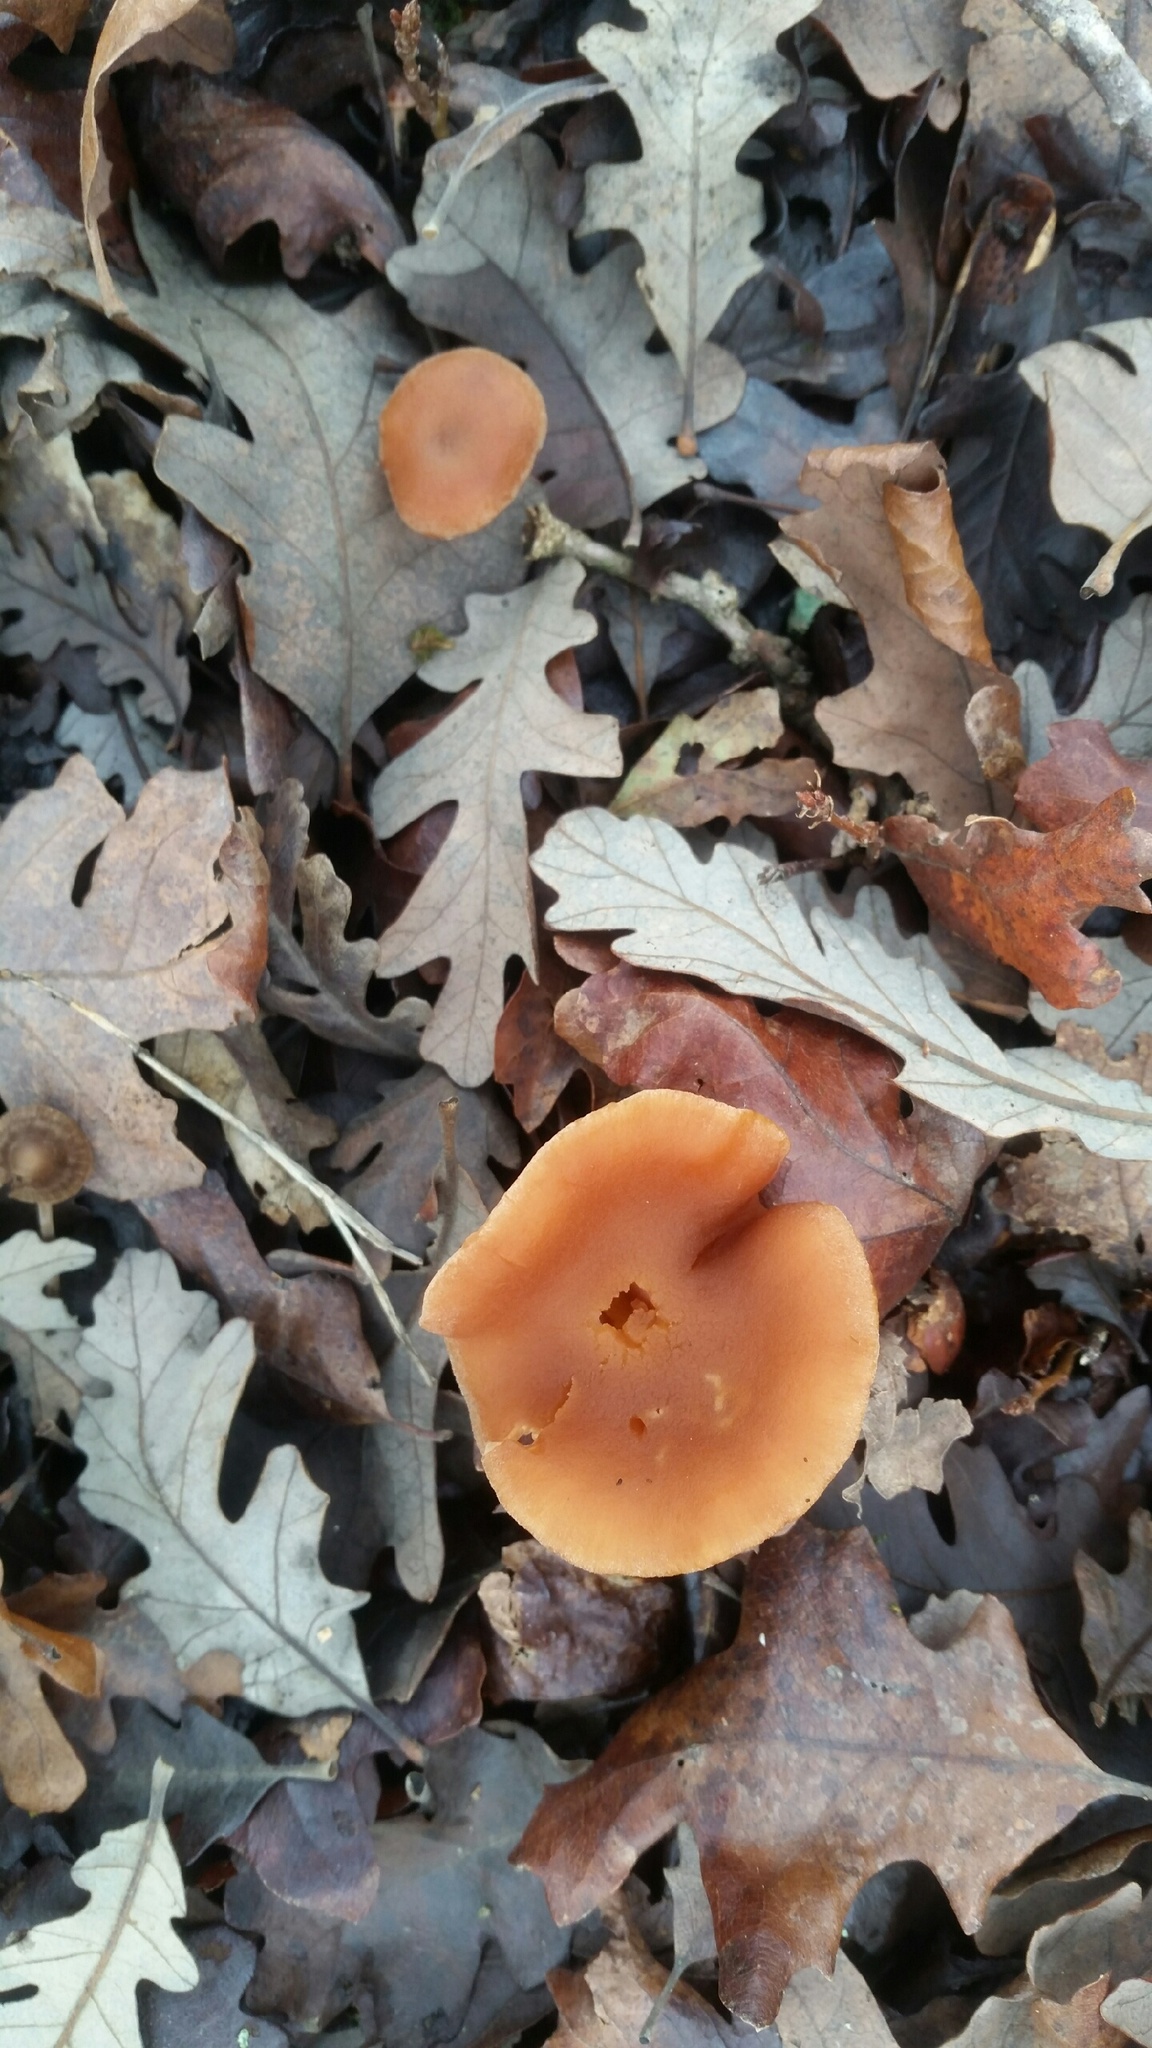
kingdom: Fungi
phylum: Basidiomycota
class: Agaricomycetes
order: Agaricales
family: Tubariaceae
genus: Tubaria
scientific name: Tubaria furfuracea
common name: Scurfy twiglet
